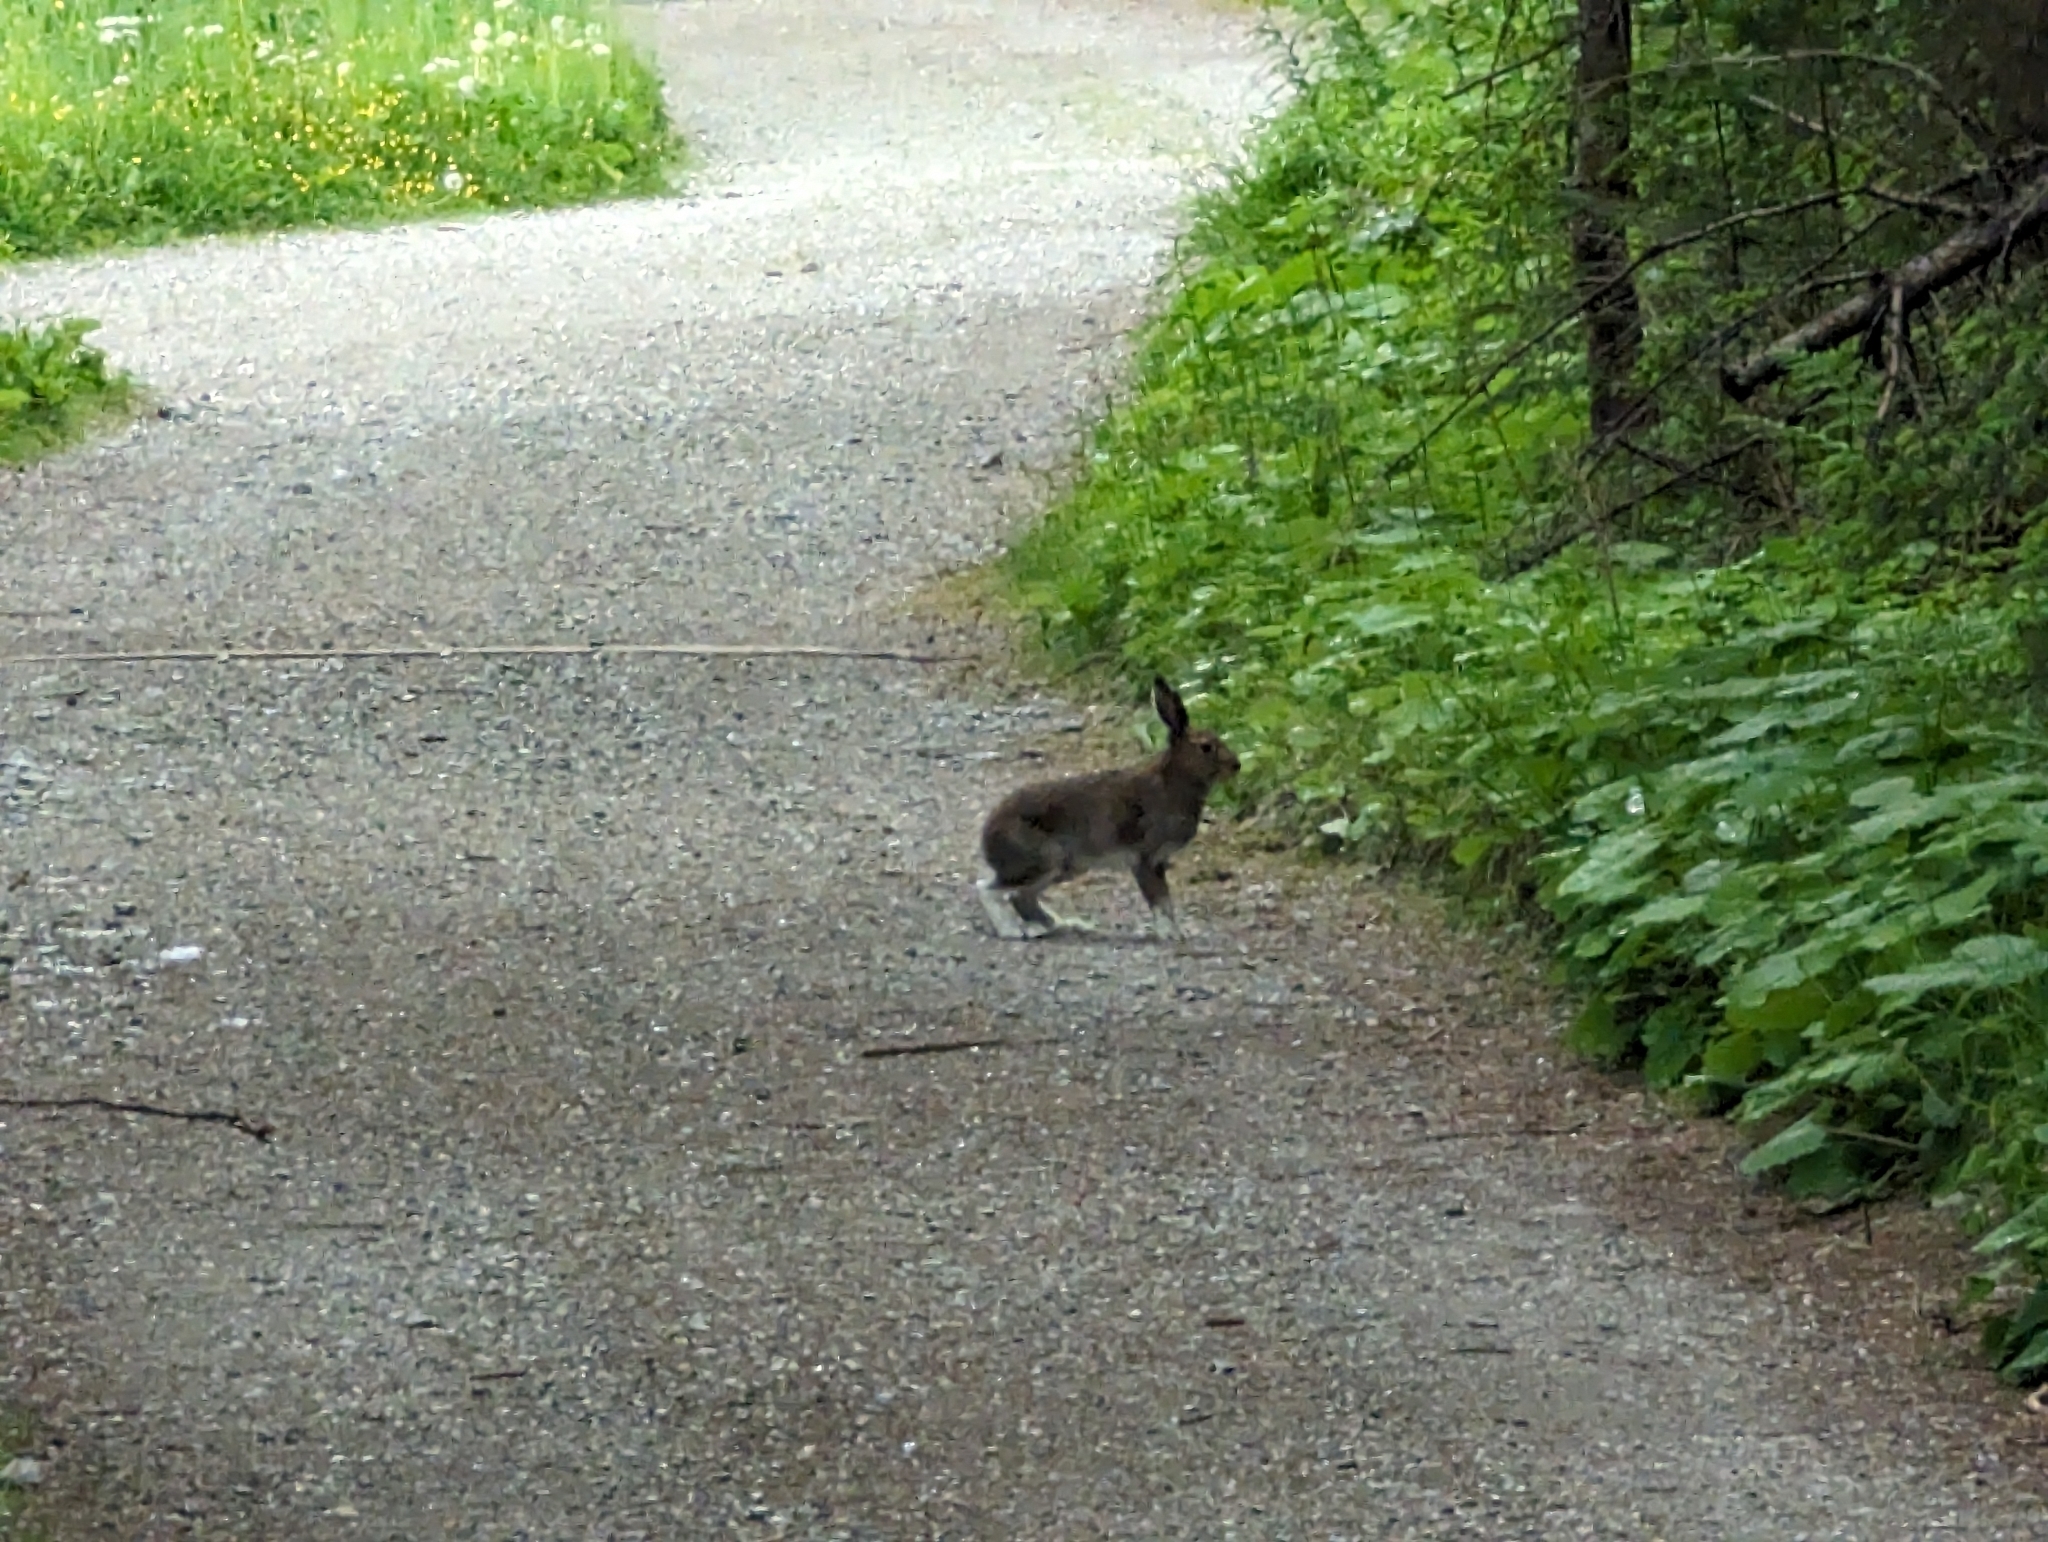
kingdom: Animalia
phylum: Chordata
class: Mammalia
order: Lagomorpha
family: Leporidae
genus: Lepus
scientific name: Lepus timidus
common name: Mountain hare
